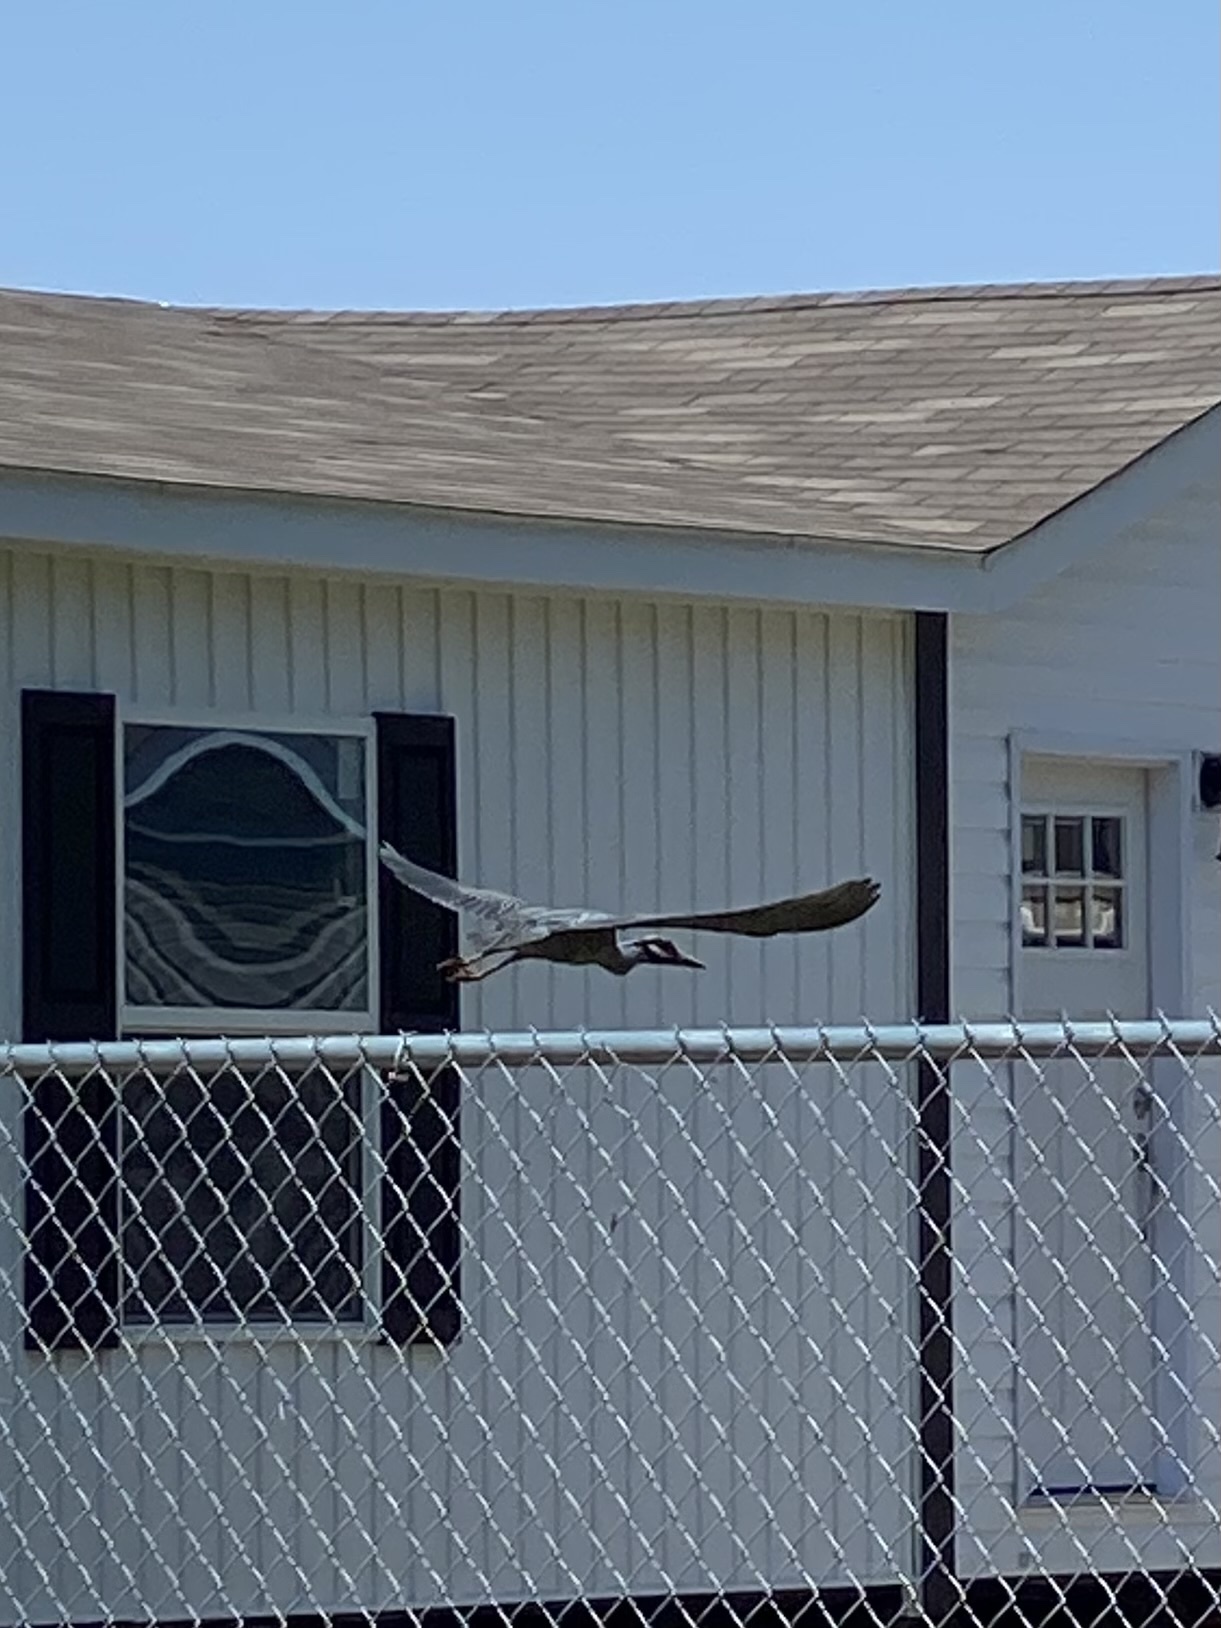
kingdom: Animalia
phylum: Chordata
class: Aves
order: Pelecaniformes
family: Ardeidae
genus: Nyctanassa
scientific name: Nyctanassa violacea
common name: Yellow-crowned night heron
